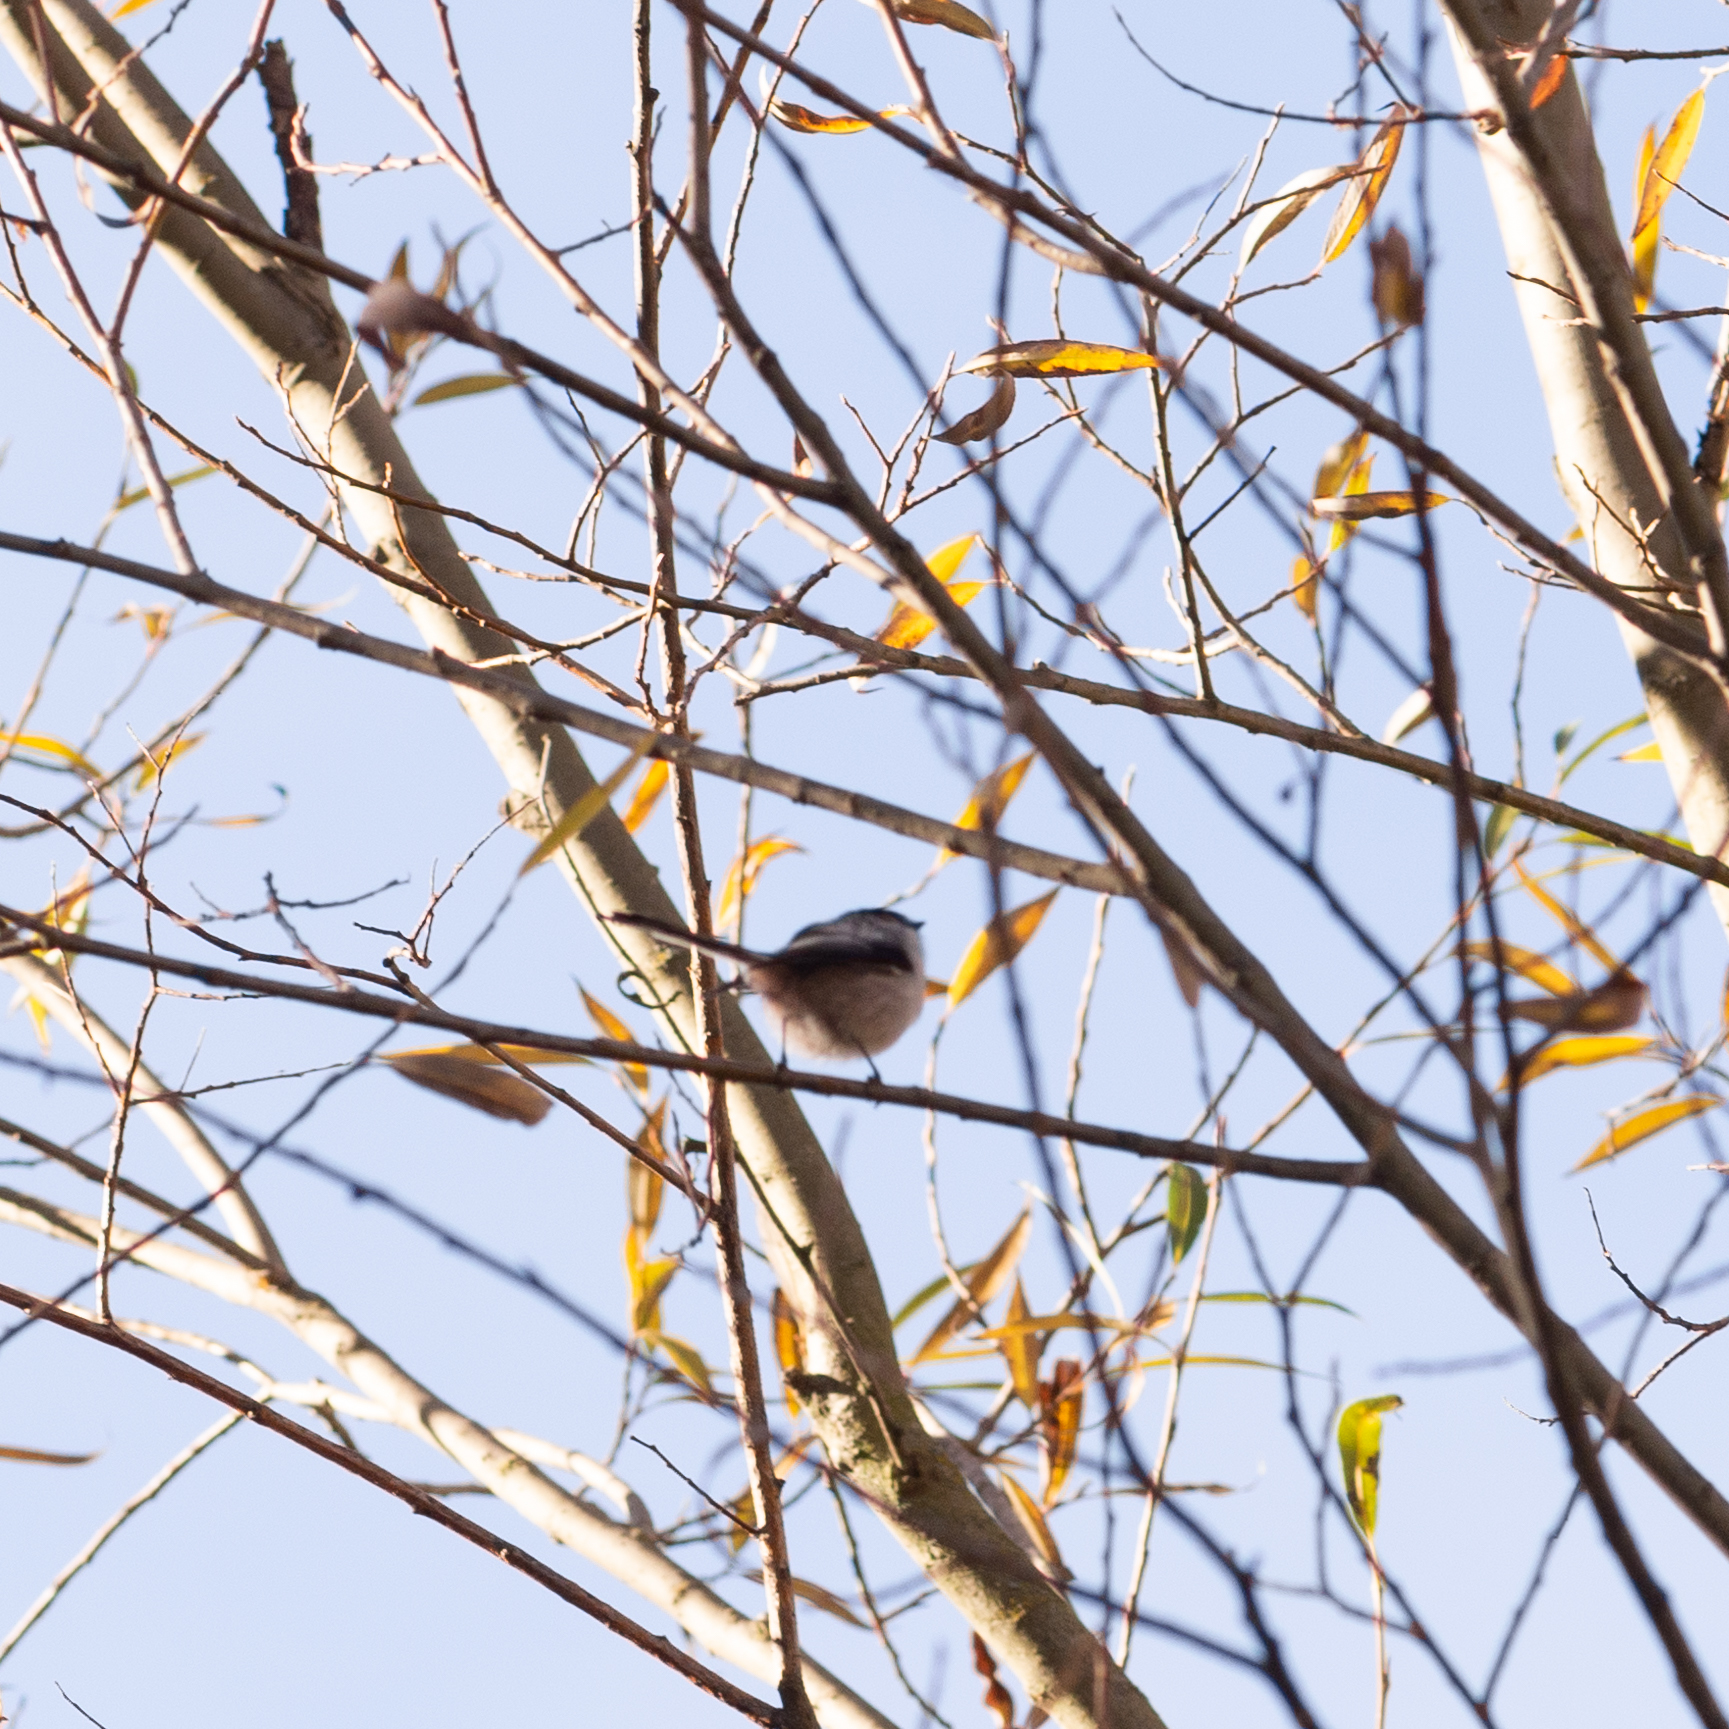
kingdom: Animalia
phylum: Chordata
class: Aves
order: Passeriformes
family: Aegithalidae
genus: Aegithalos
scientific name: Aegithalos caudatus
